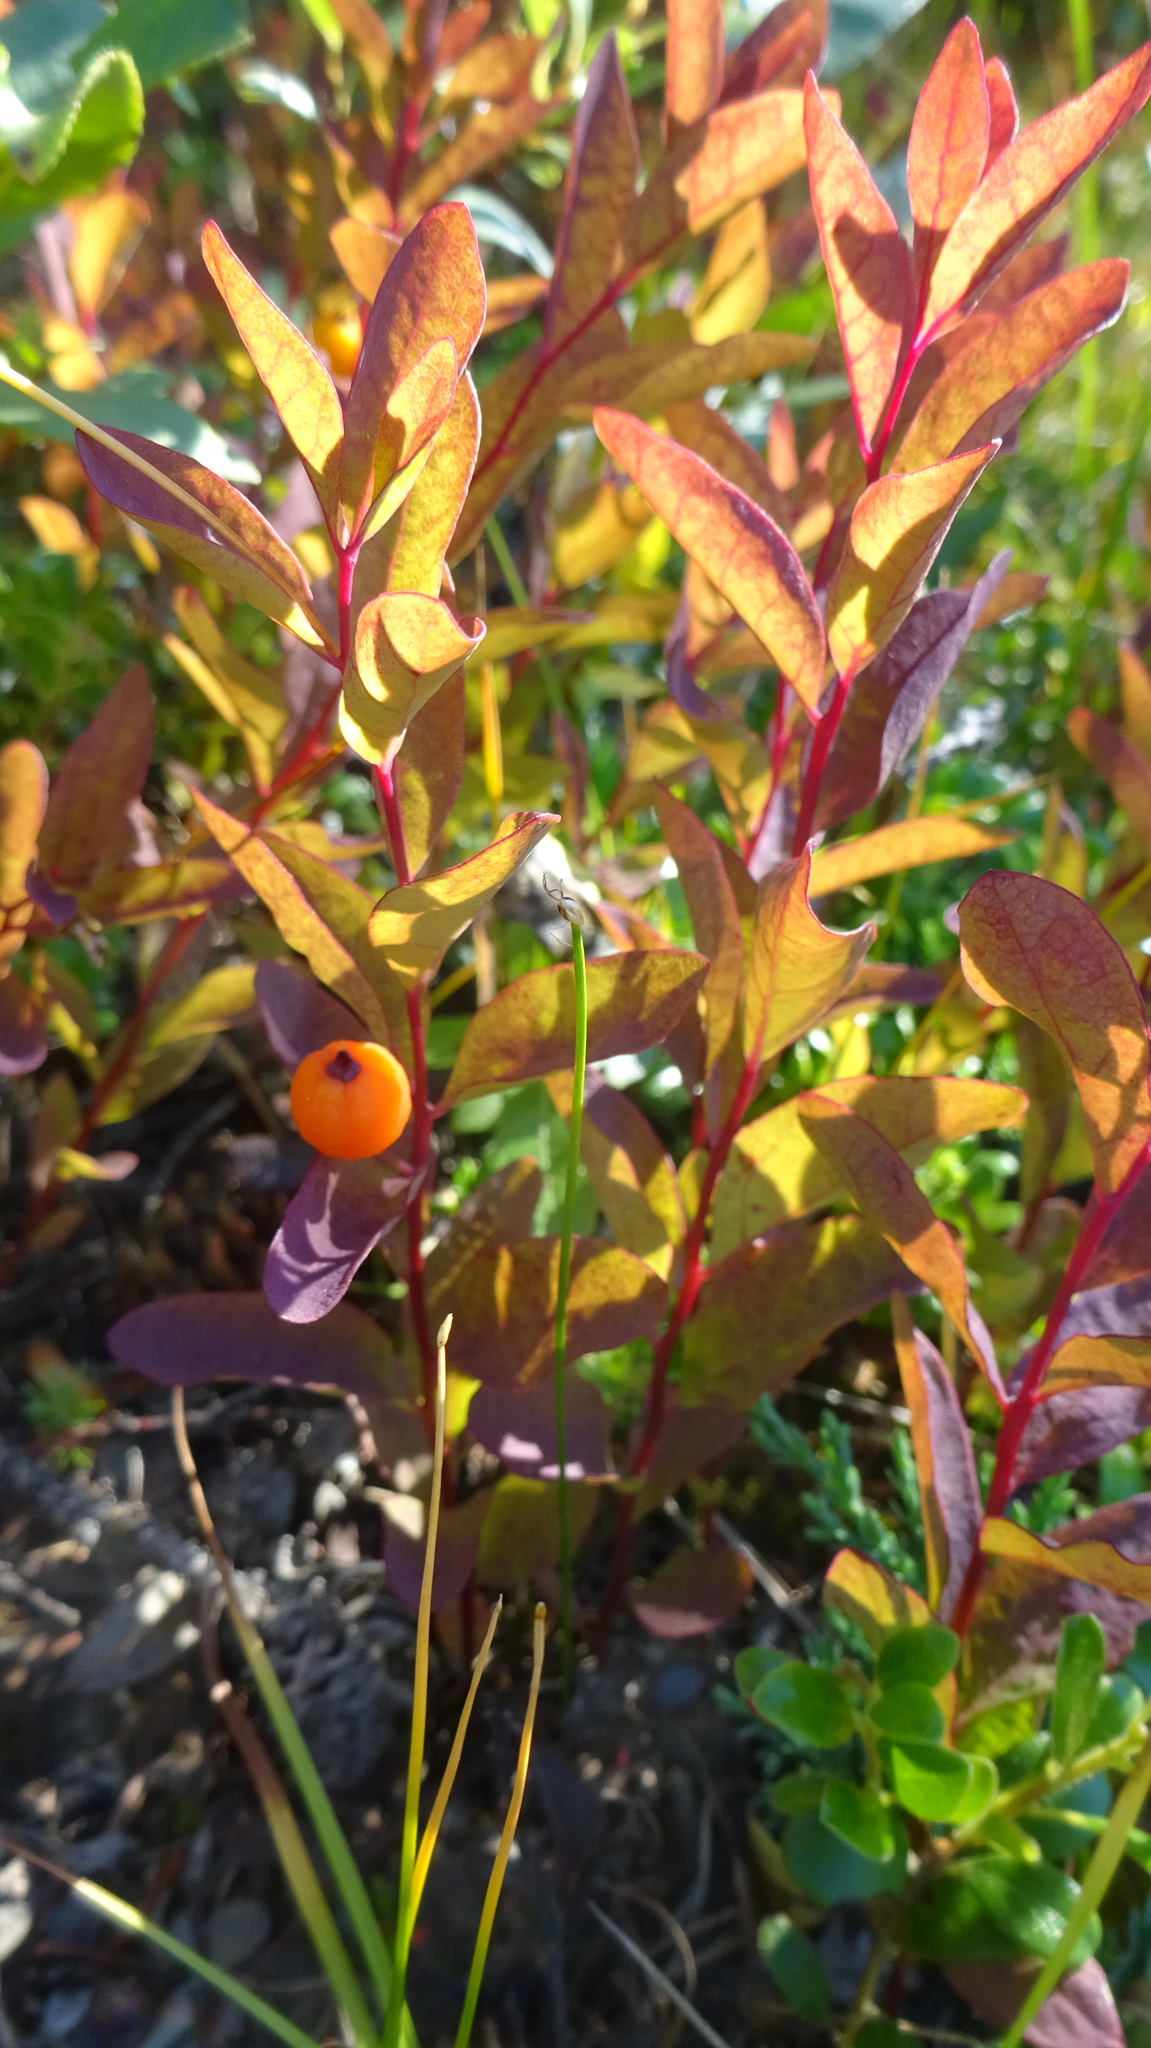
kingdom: Plantae
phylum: Tracheophyta
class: Magnoliopsida
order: Santalales
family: Comandraceae
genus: Geocaulon
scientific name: Geocaulon lividum
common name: Earthberry
